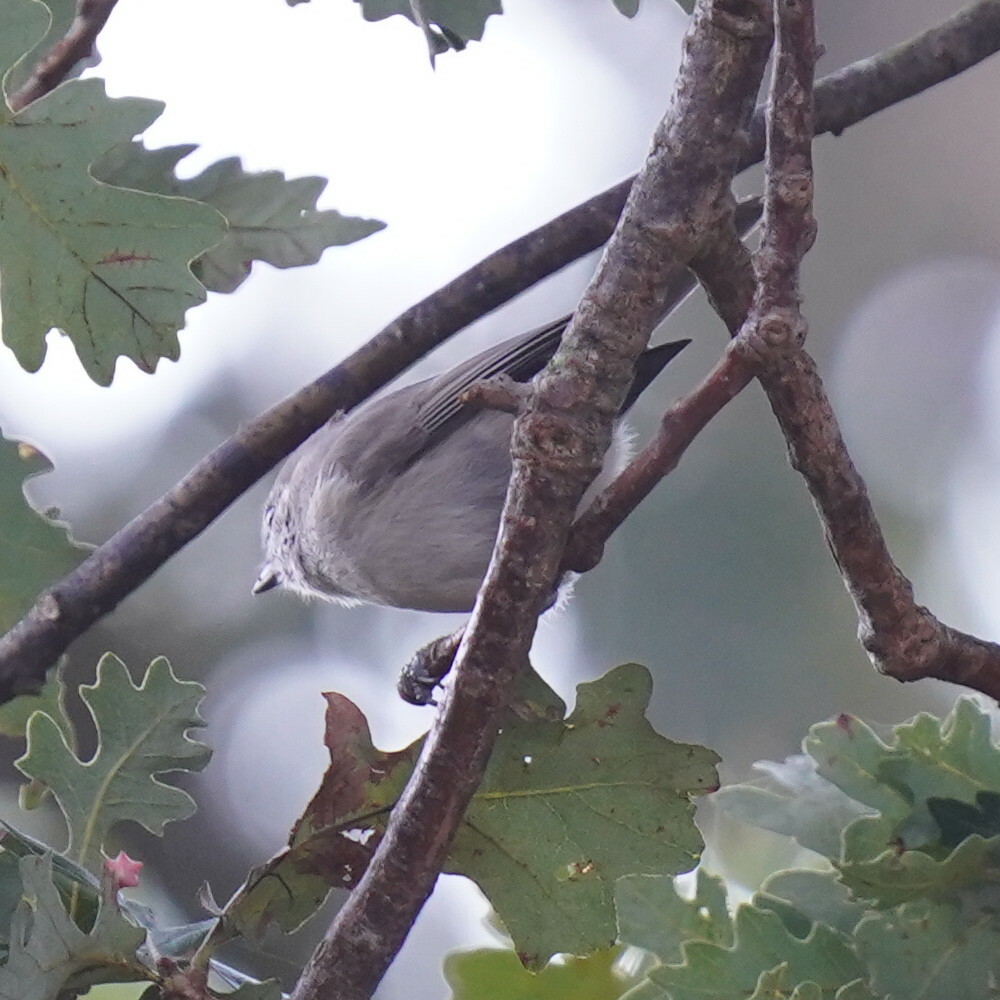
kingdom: Animalia
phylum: Chordata
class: Aves
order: Passeriformes
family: Paridae
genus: Baeolophus
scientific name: Baeolophus inornatus
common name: Oak titmouse
